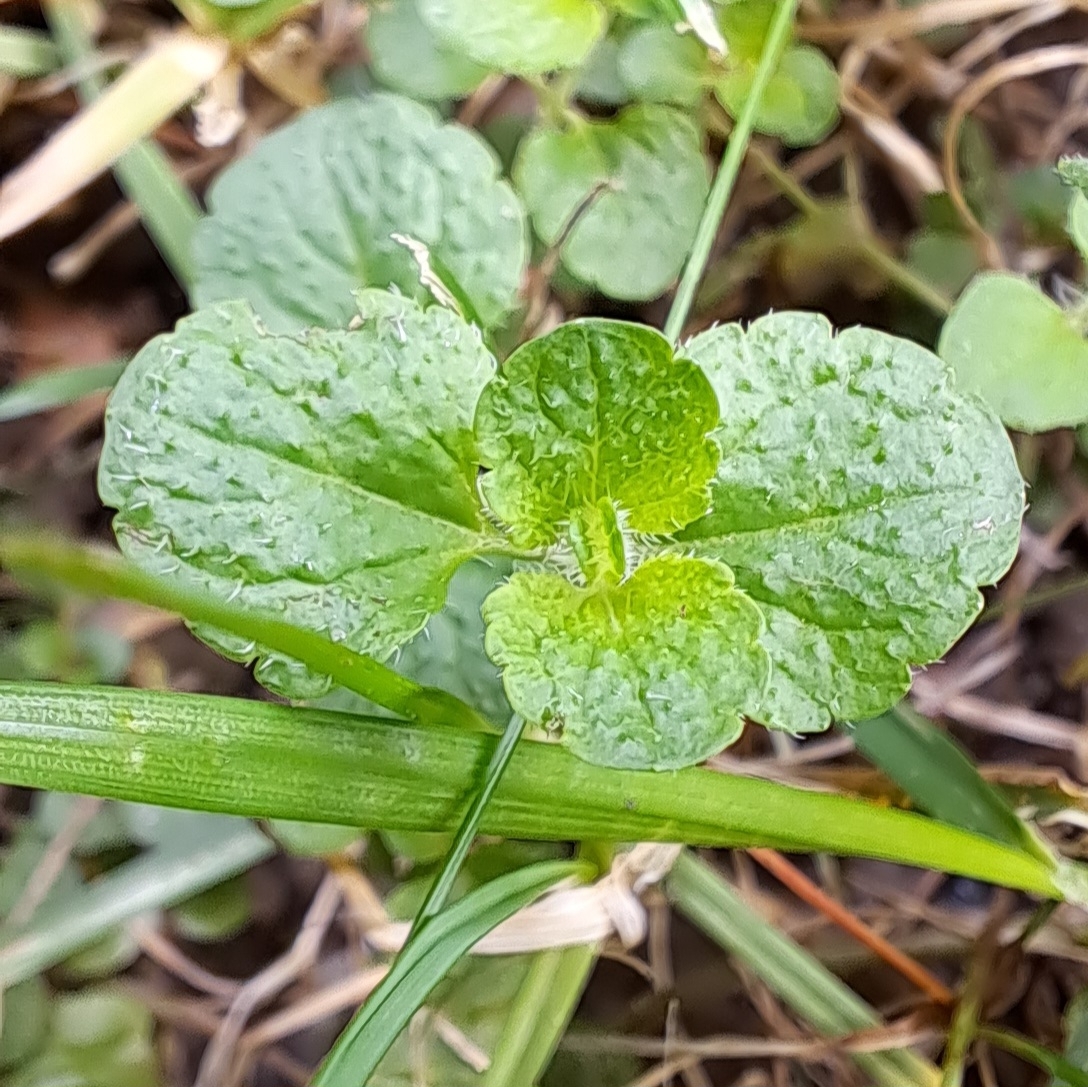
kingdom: Plantae
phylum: Tracheophyta
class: Magnoliopsida
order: Lamiales
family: Plantaginaceae
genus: Veronica
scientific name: Veronica persica
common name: Common field-speedwell
